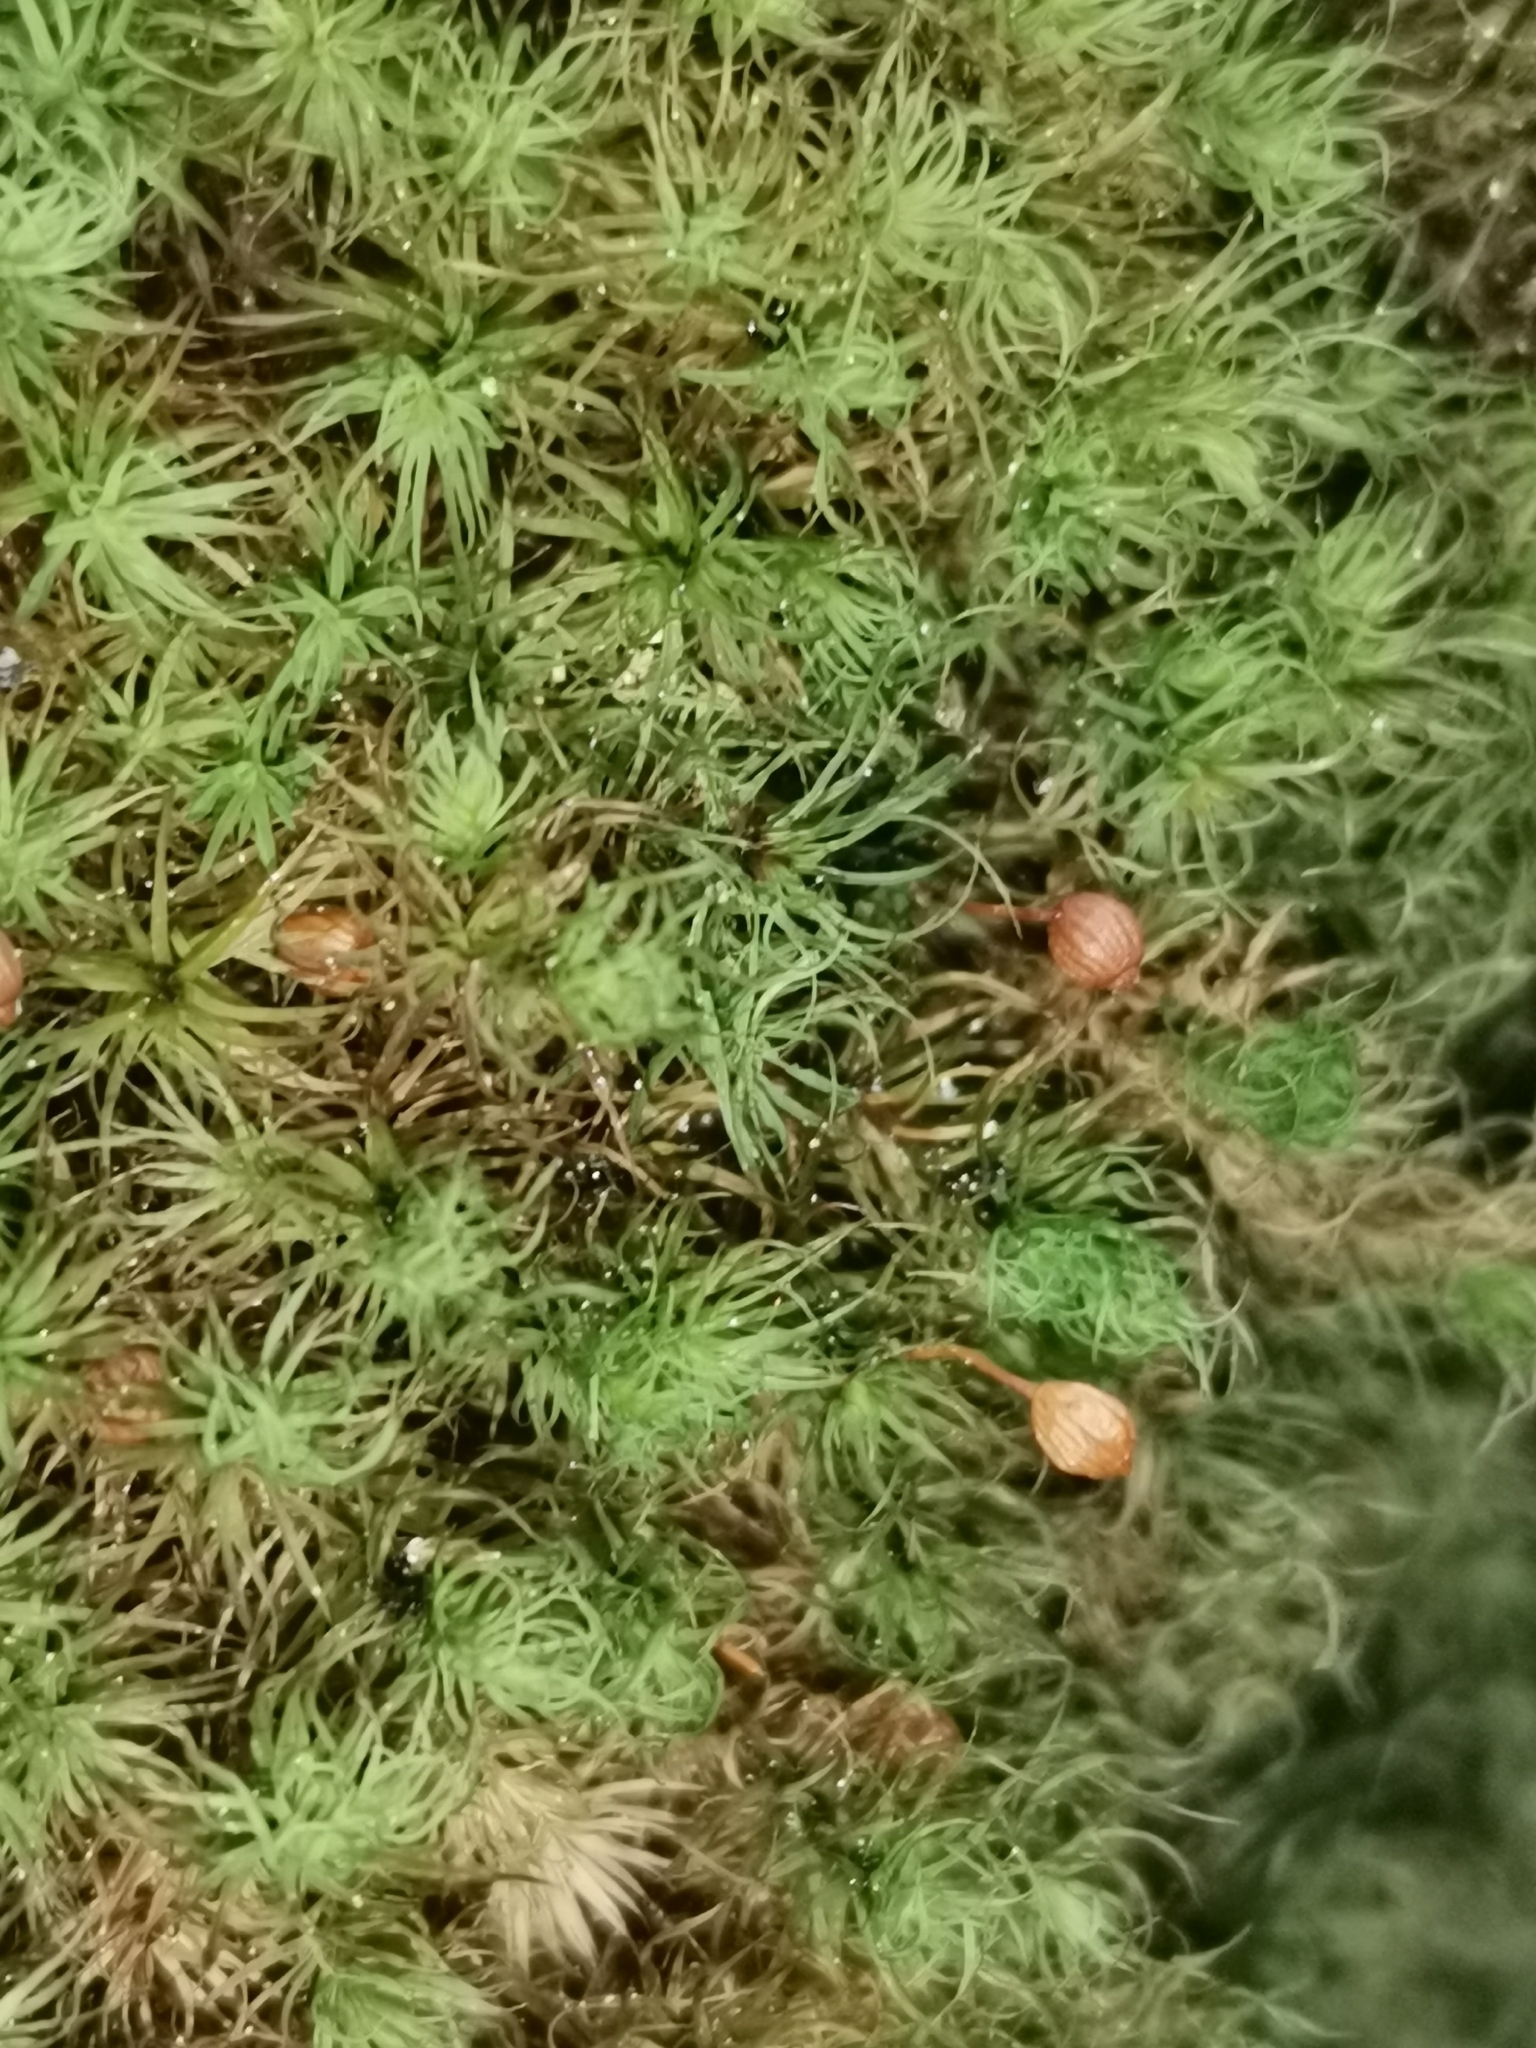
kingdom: Plantae
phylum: Bryophyta
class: Bryopsida
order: Bartramiales
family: Bartramiaceae
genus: Bartramia
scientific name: Bartramia ithyphylla
